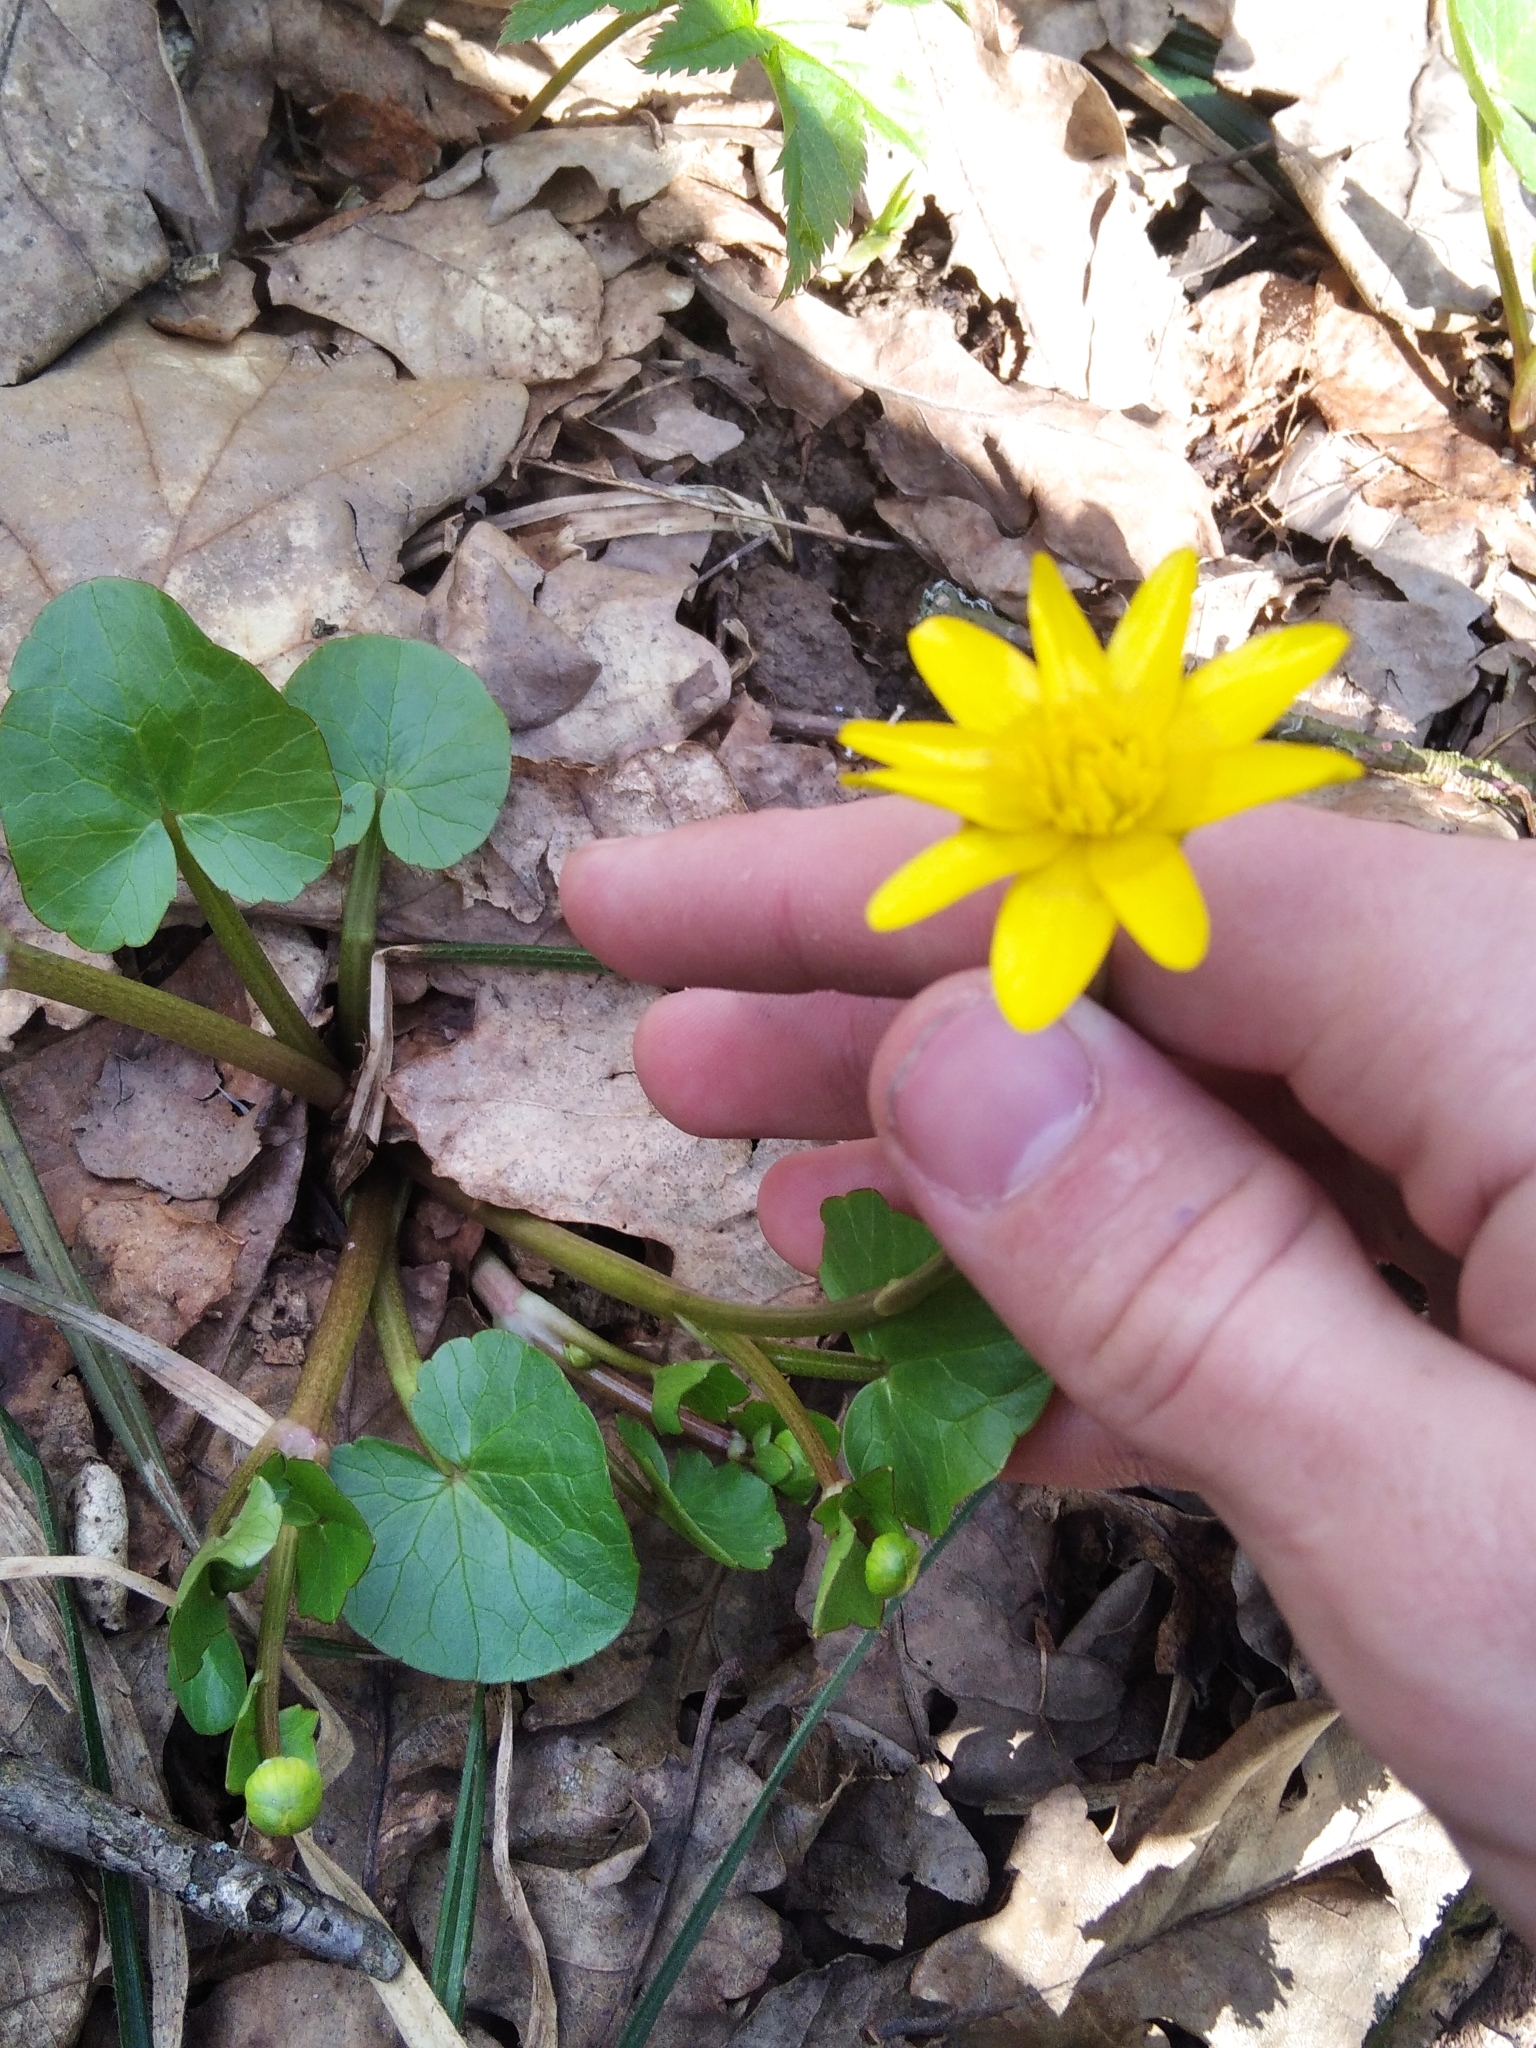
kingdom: Plantae
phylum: Tracheophyta
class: Magnoliopsida
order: Ranunculales
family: Ranunculaceae
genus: Ficaria
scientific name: Ficaria verna
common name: Lesser celandine
